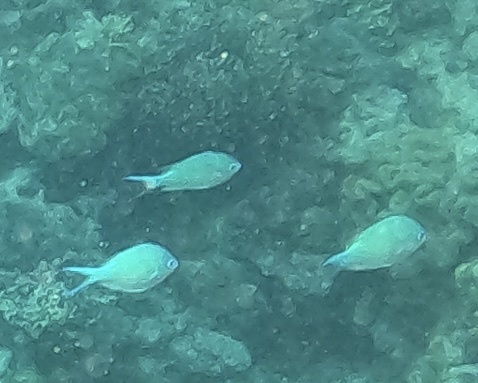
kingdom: Animalia
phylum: Chordata
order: Perciformes
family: Pomacentridae
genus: Chromis
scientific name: Chromis viridis
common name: Blue-green chromis
